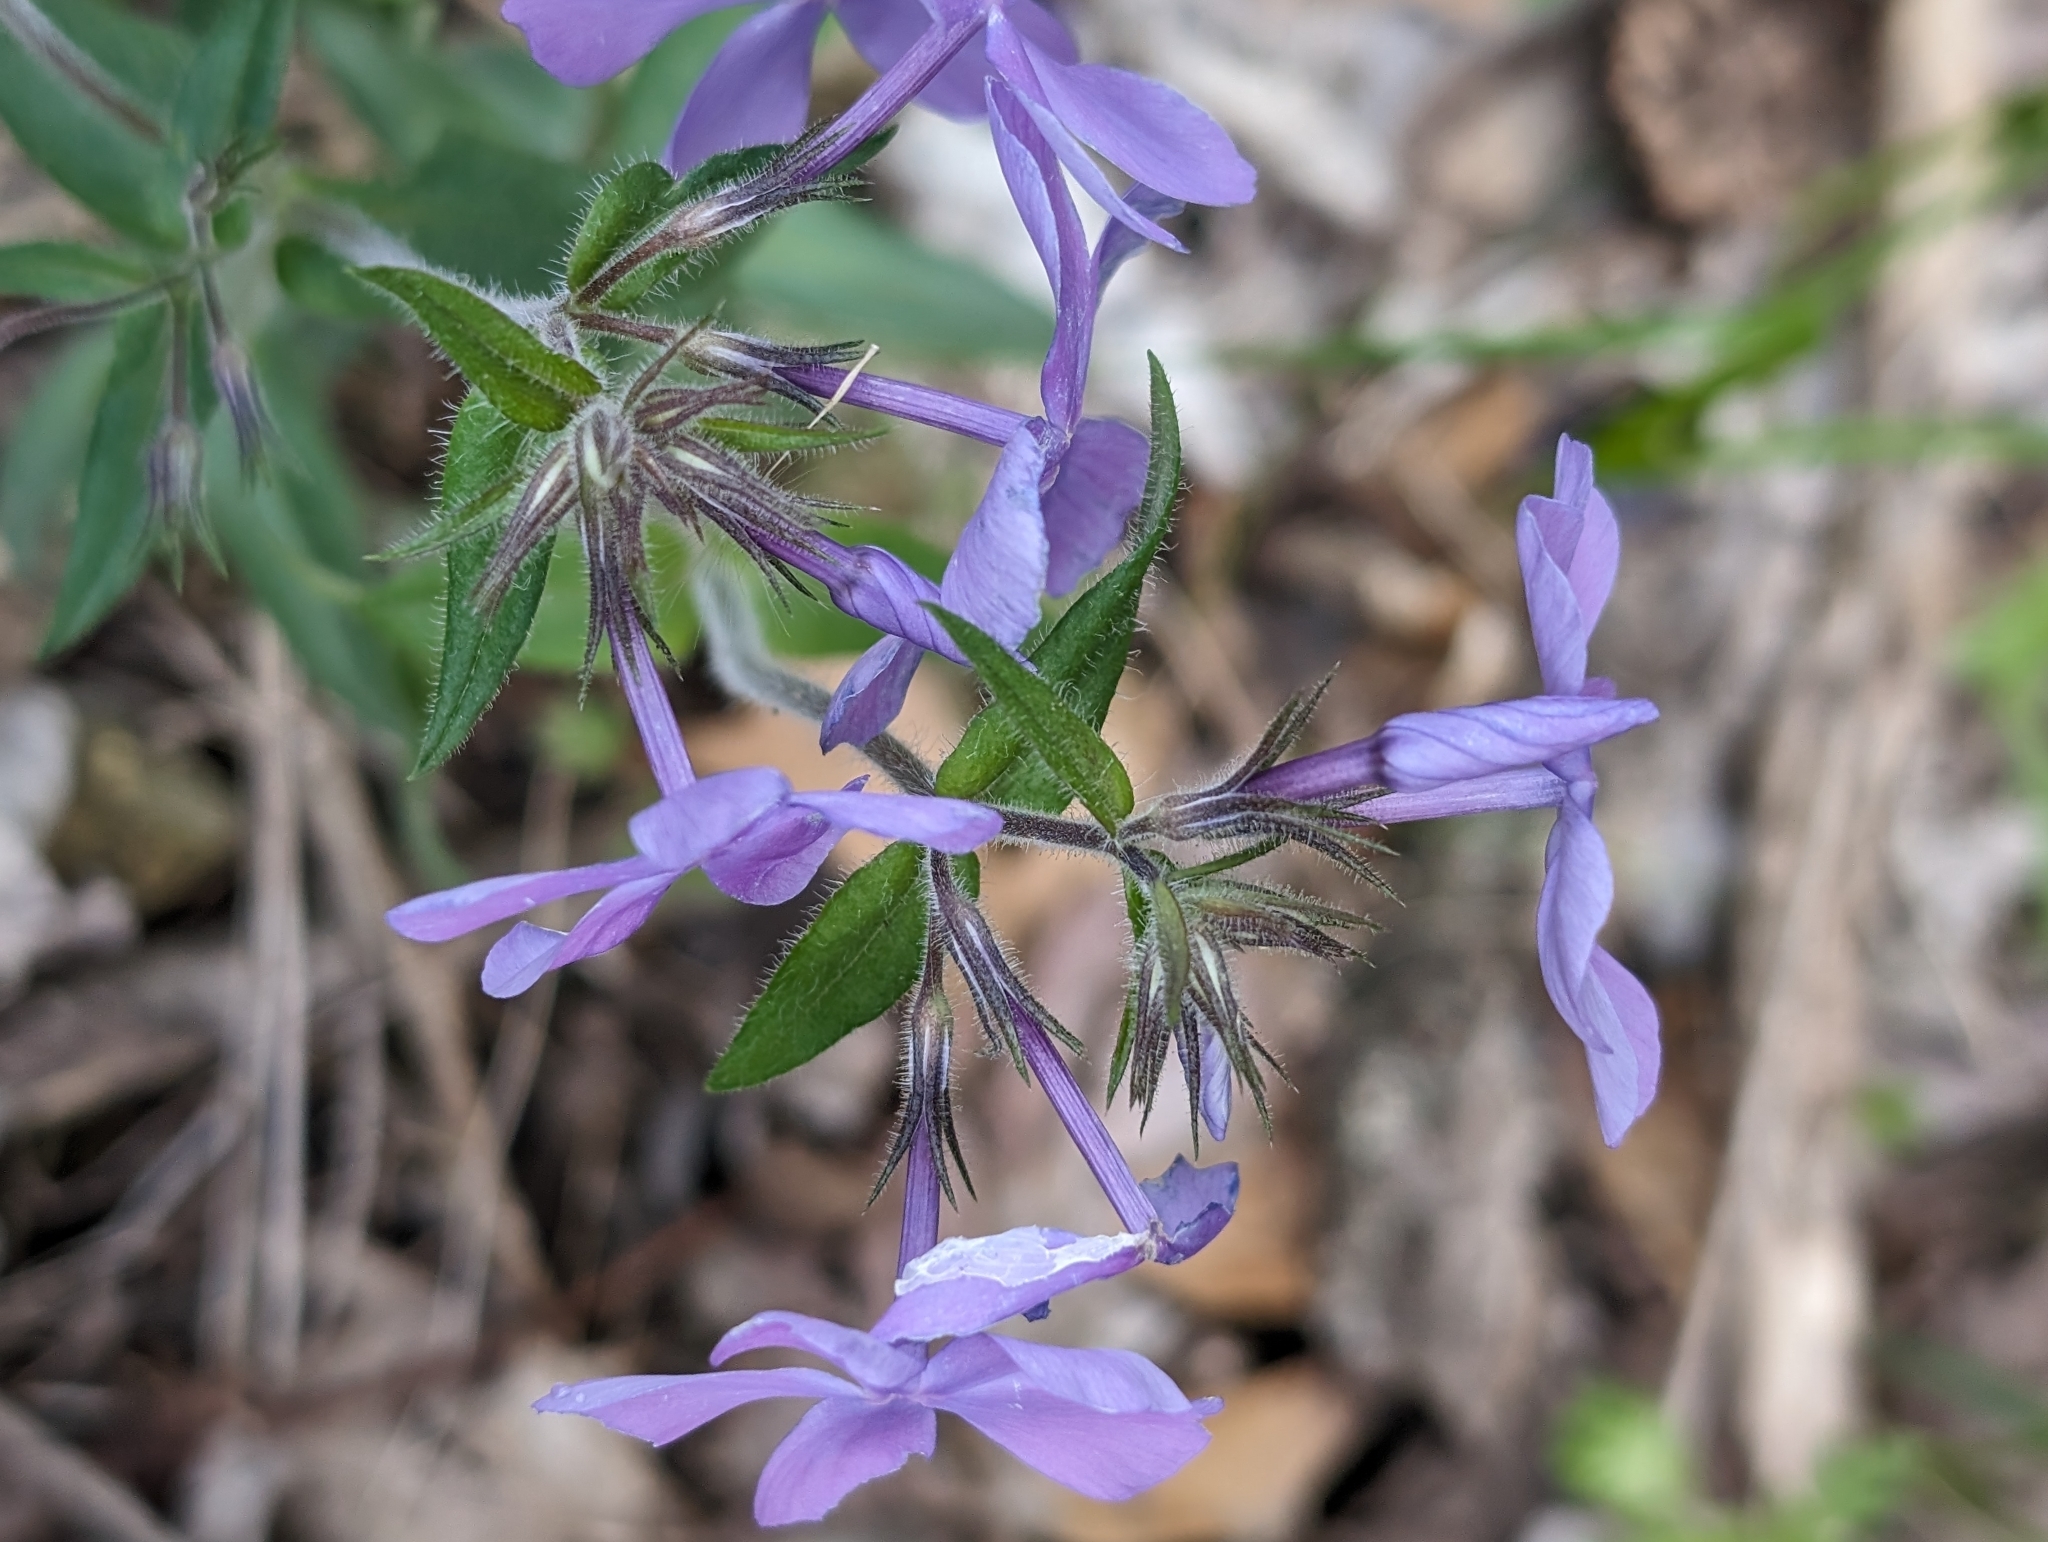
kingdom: Plantae
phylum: Tracheophyta
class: Magnoliopsida
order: Ericales
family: Polemoniaceae
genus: Phlox
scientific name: Phlox divaricata
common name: Blue phlox
